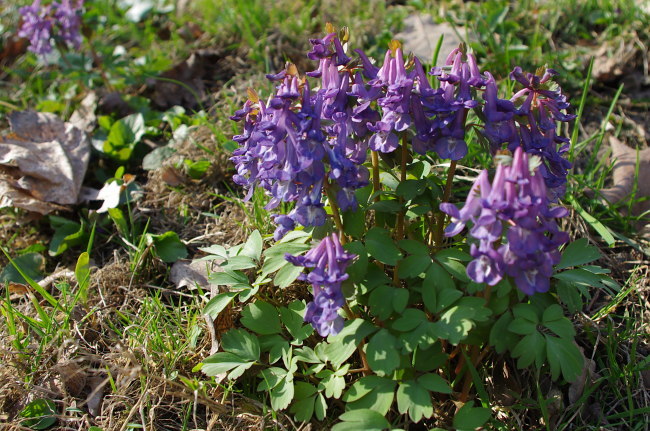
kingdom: Plantae
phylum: Tracheophyta
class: Magnoliopsida
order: Ranunculales
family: Papaveraceae
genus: Corydalis
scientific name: Corydalis solida
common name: Bird-in-a-bush
